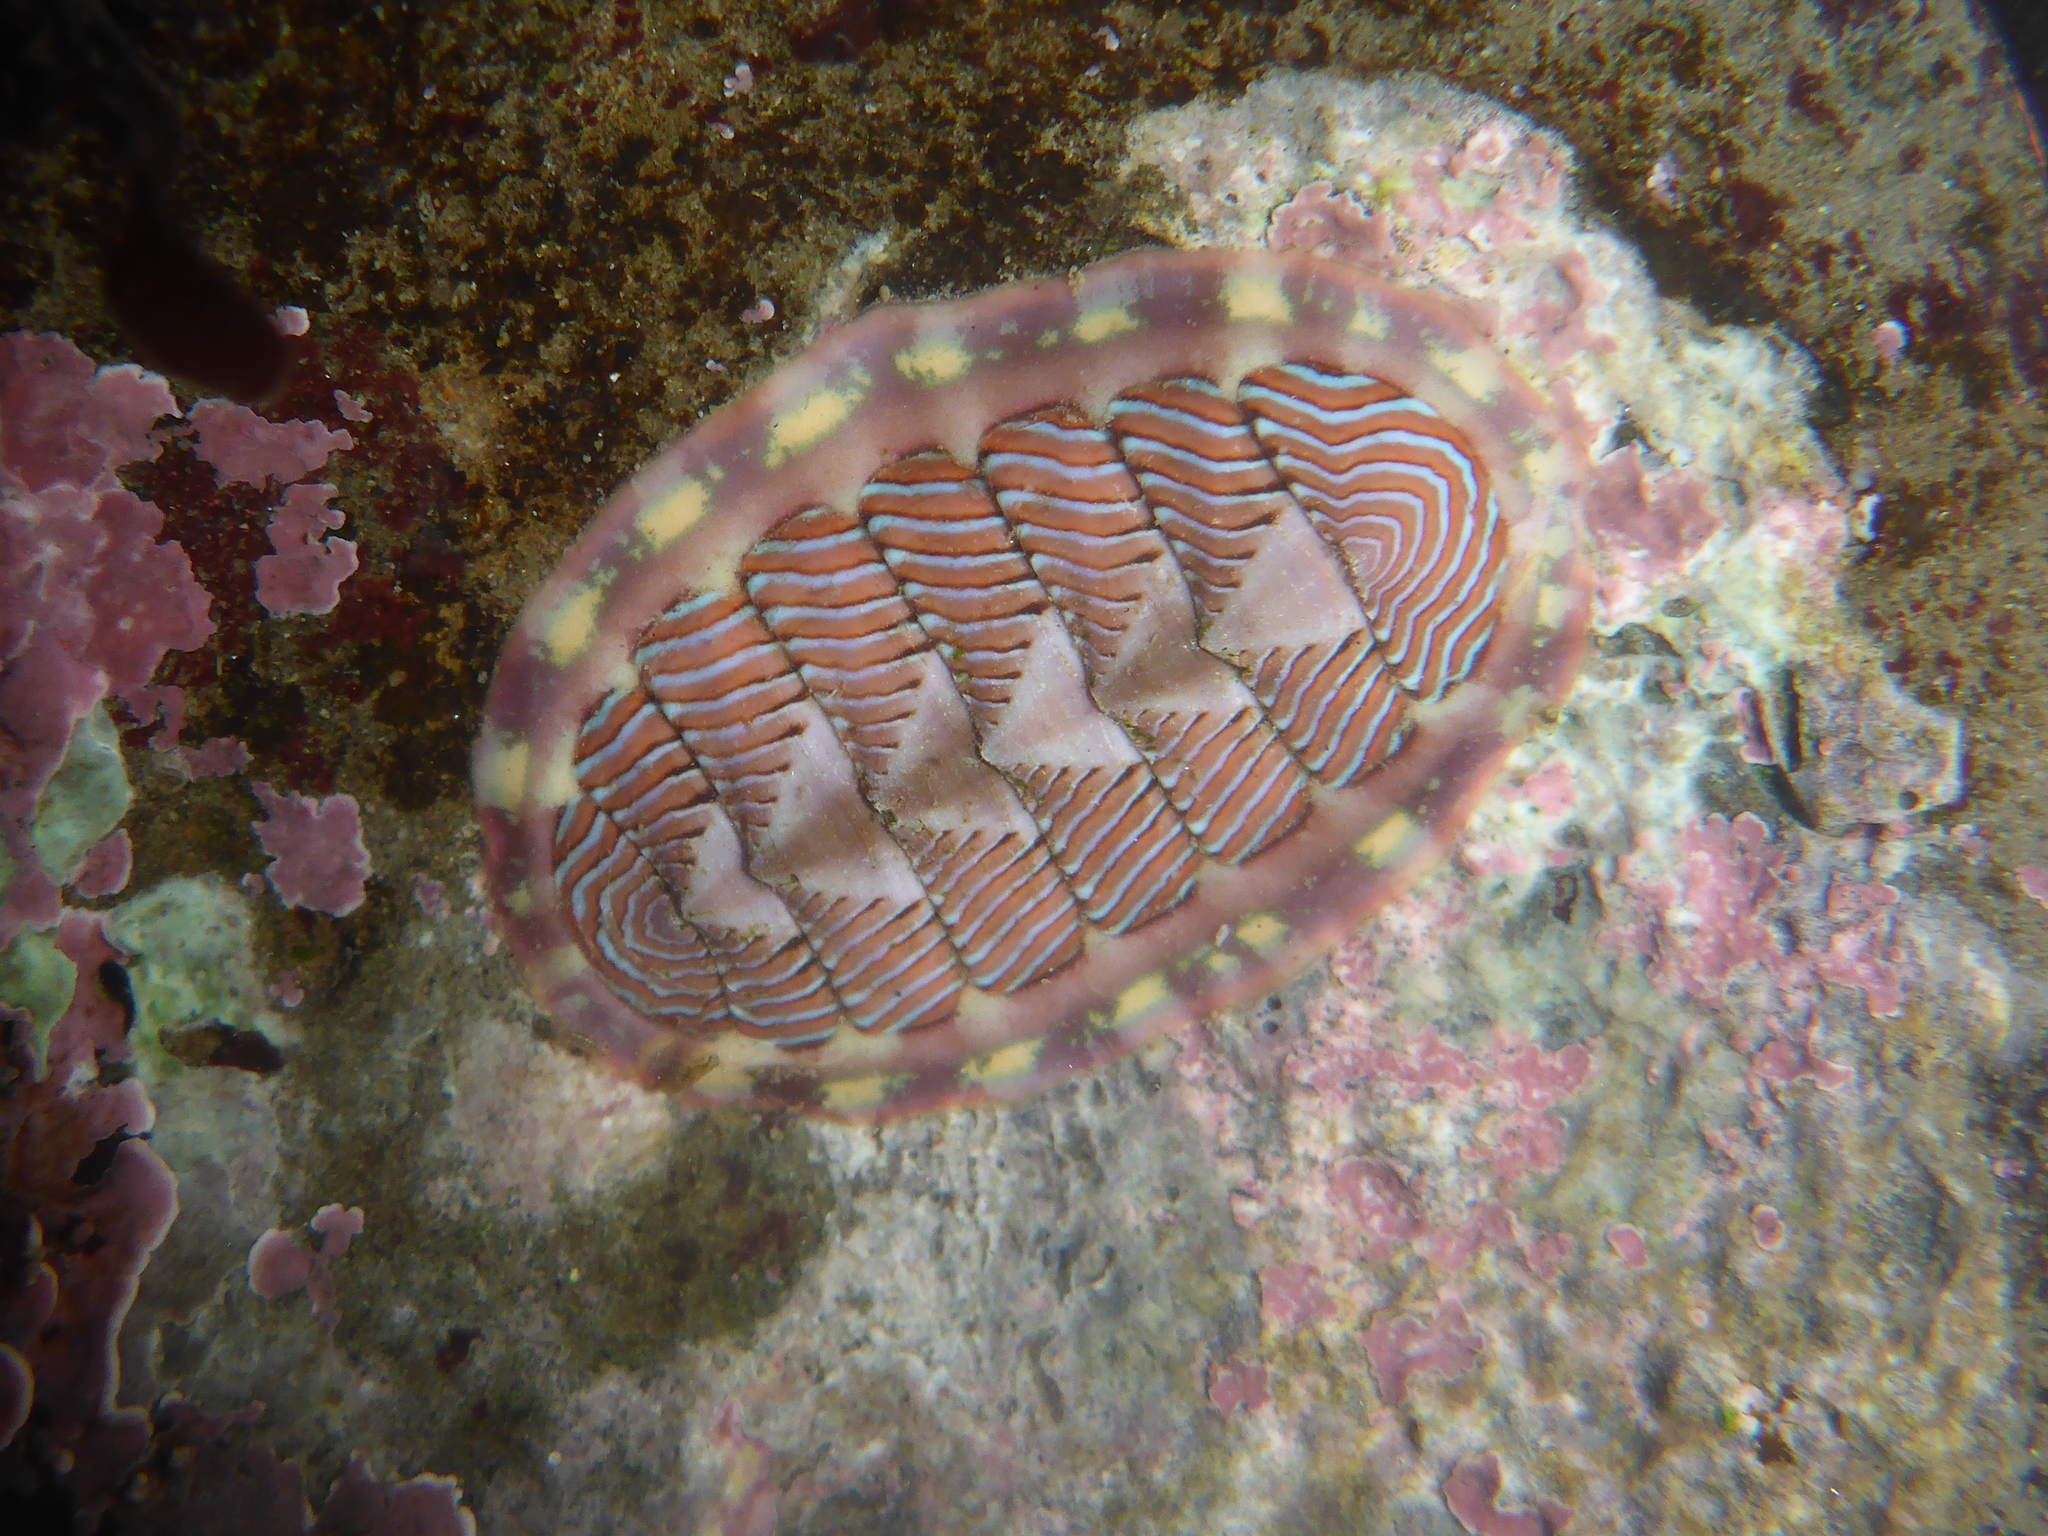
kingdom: Animalia
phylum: Mollusca
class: Polyplacophora
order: Chitonida
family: Tonicellidae
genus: Tonicella
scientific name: Tonicella lineata
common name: Lined chiton
